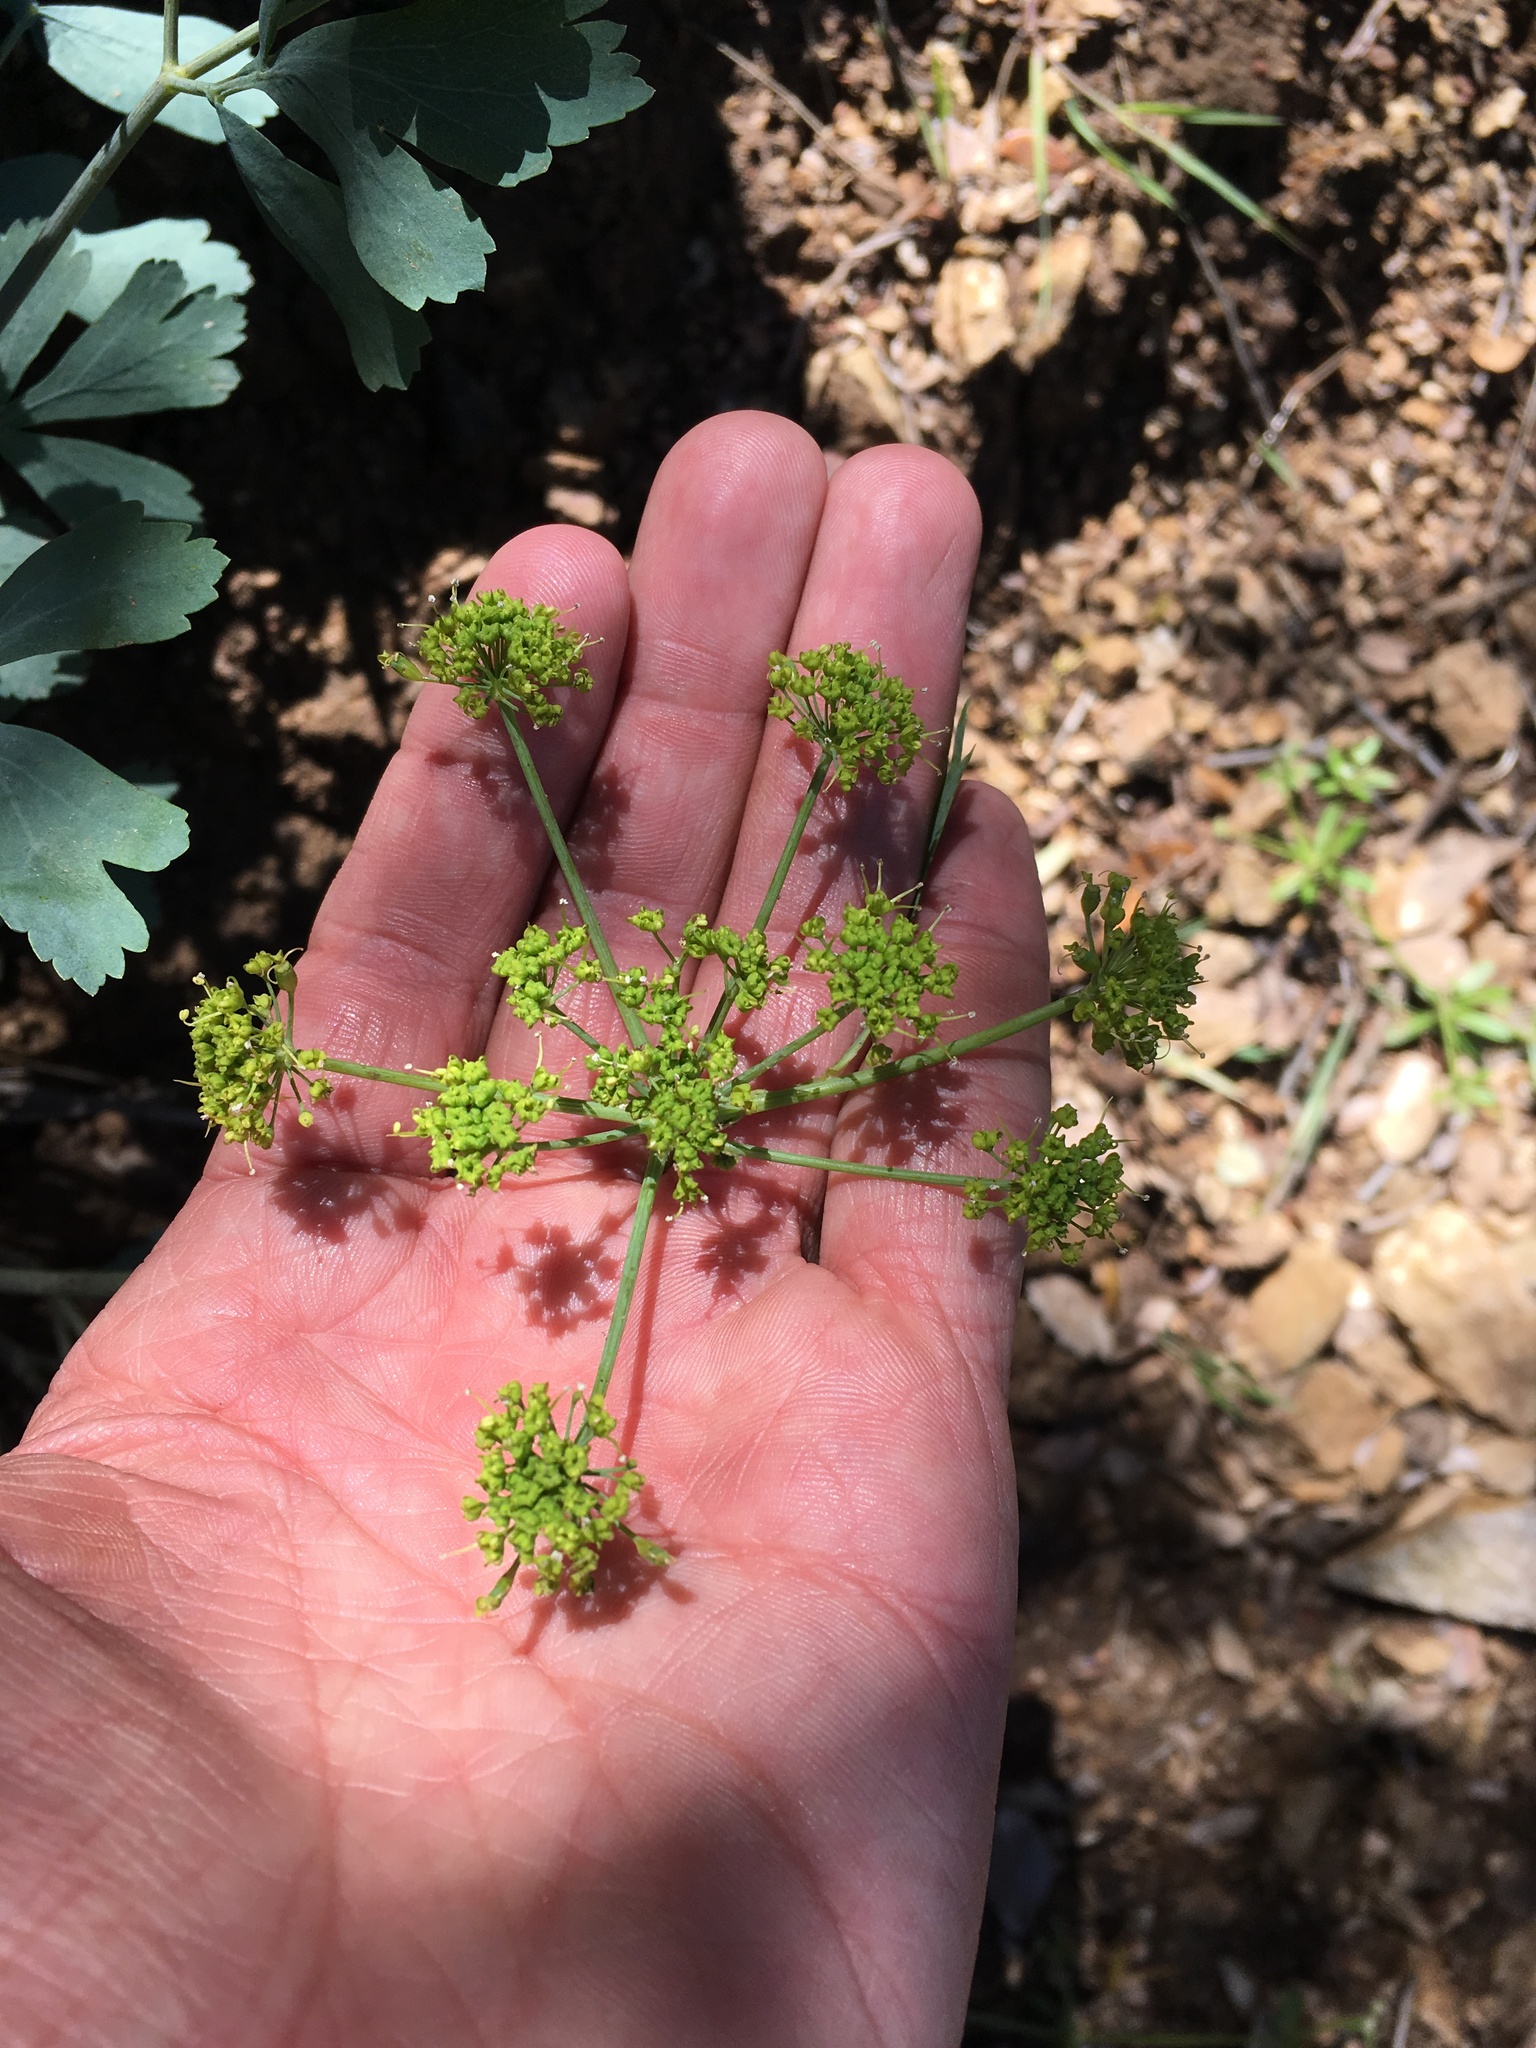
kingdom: Plantae
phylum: Tracheophyta
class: Magnoliopsida
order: Apiales
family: Apiaceae
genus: Lomatium
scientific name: Lomatium californicum
